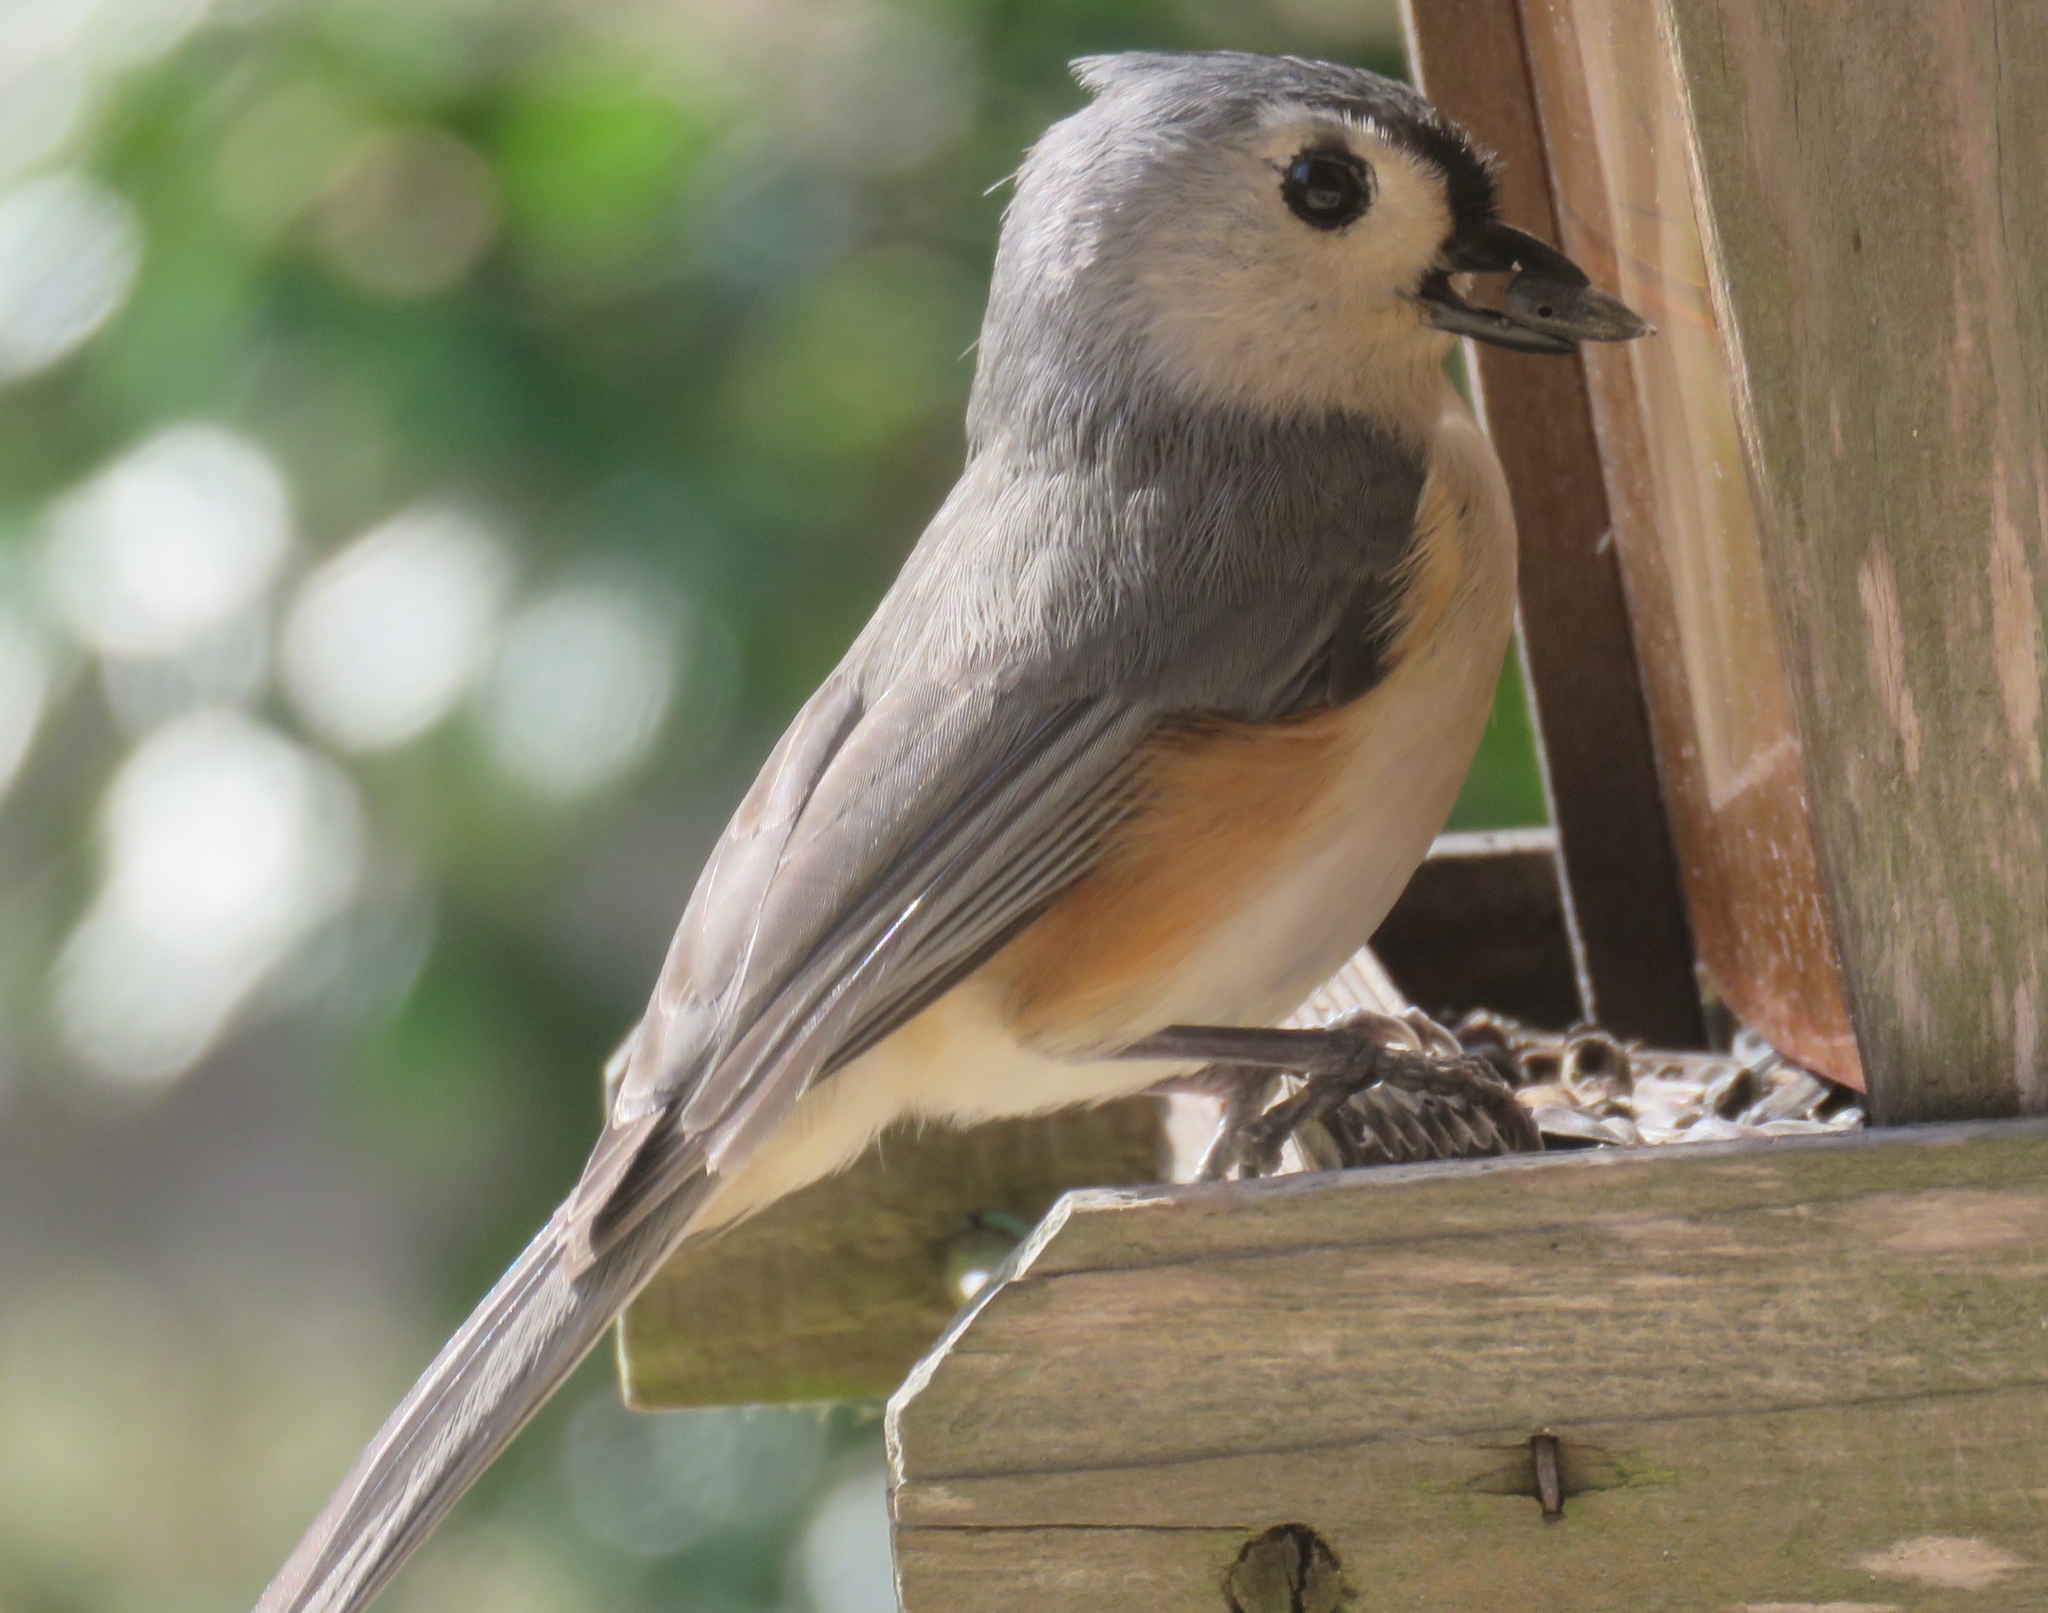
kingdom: Animalia
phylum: Chordata
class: Aves
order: Passeriformes
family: Paridae
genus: Baeolophus
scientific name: Baeolophus bicolor
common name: Tufted titmouse
